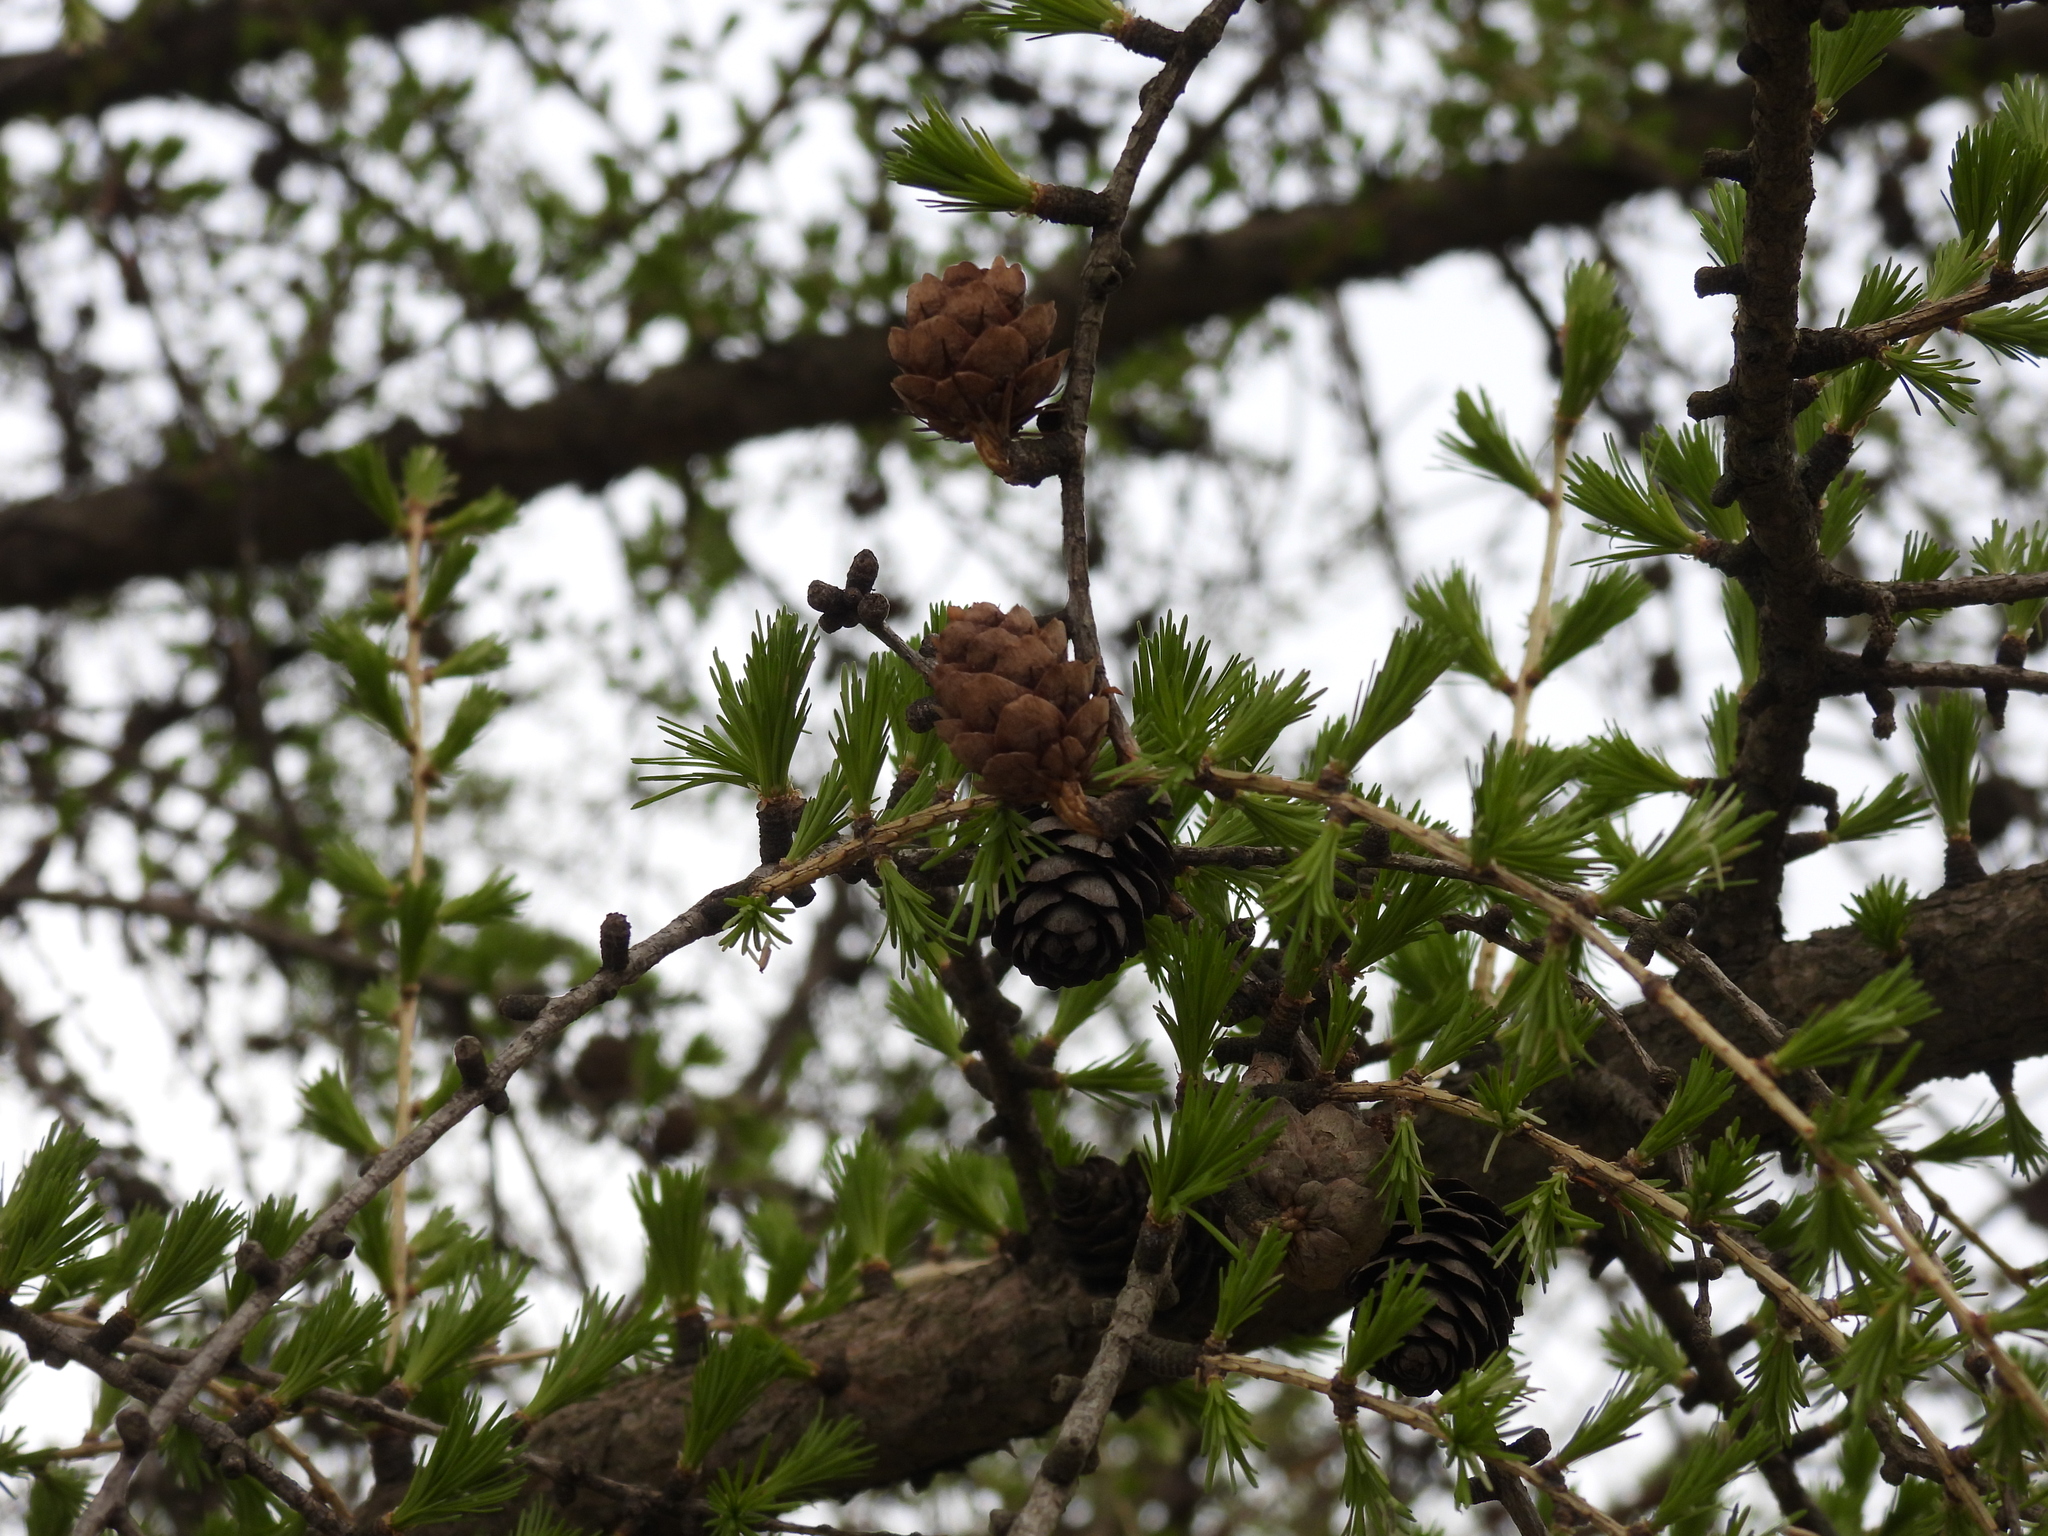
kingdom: Plantae
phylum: Tracheophyta
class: Pinopsida
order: Pinales
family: Pinaceae
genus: Larix
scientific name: Larix decidua
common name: European larch
